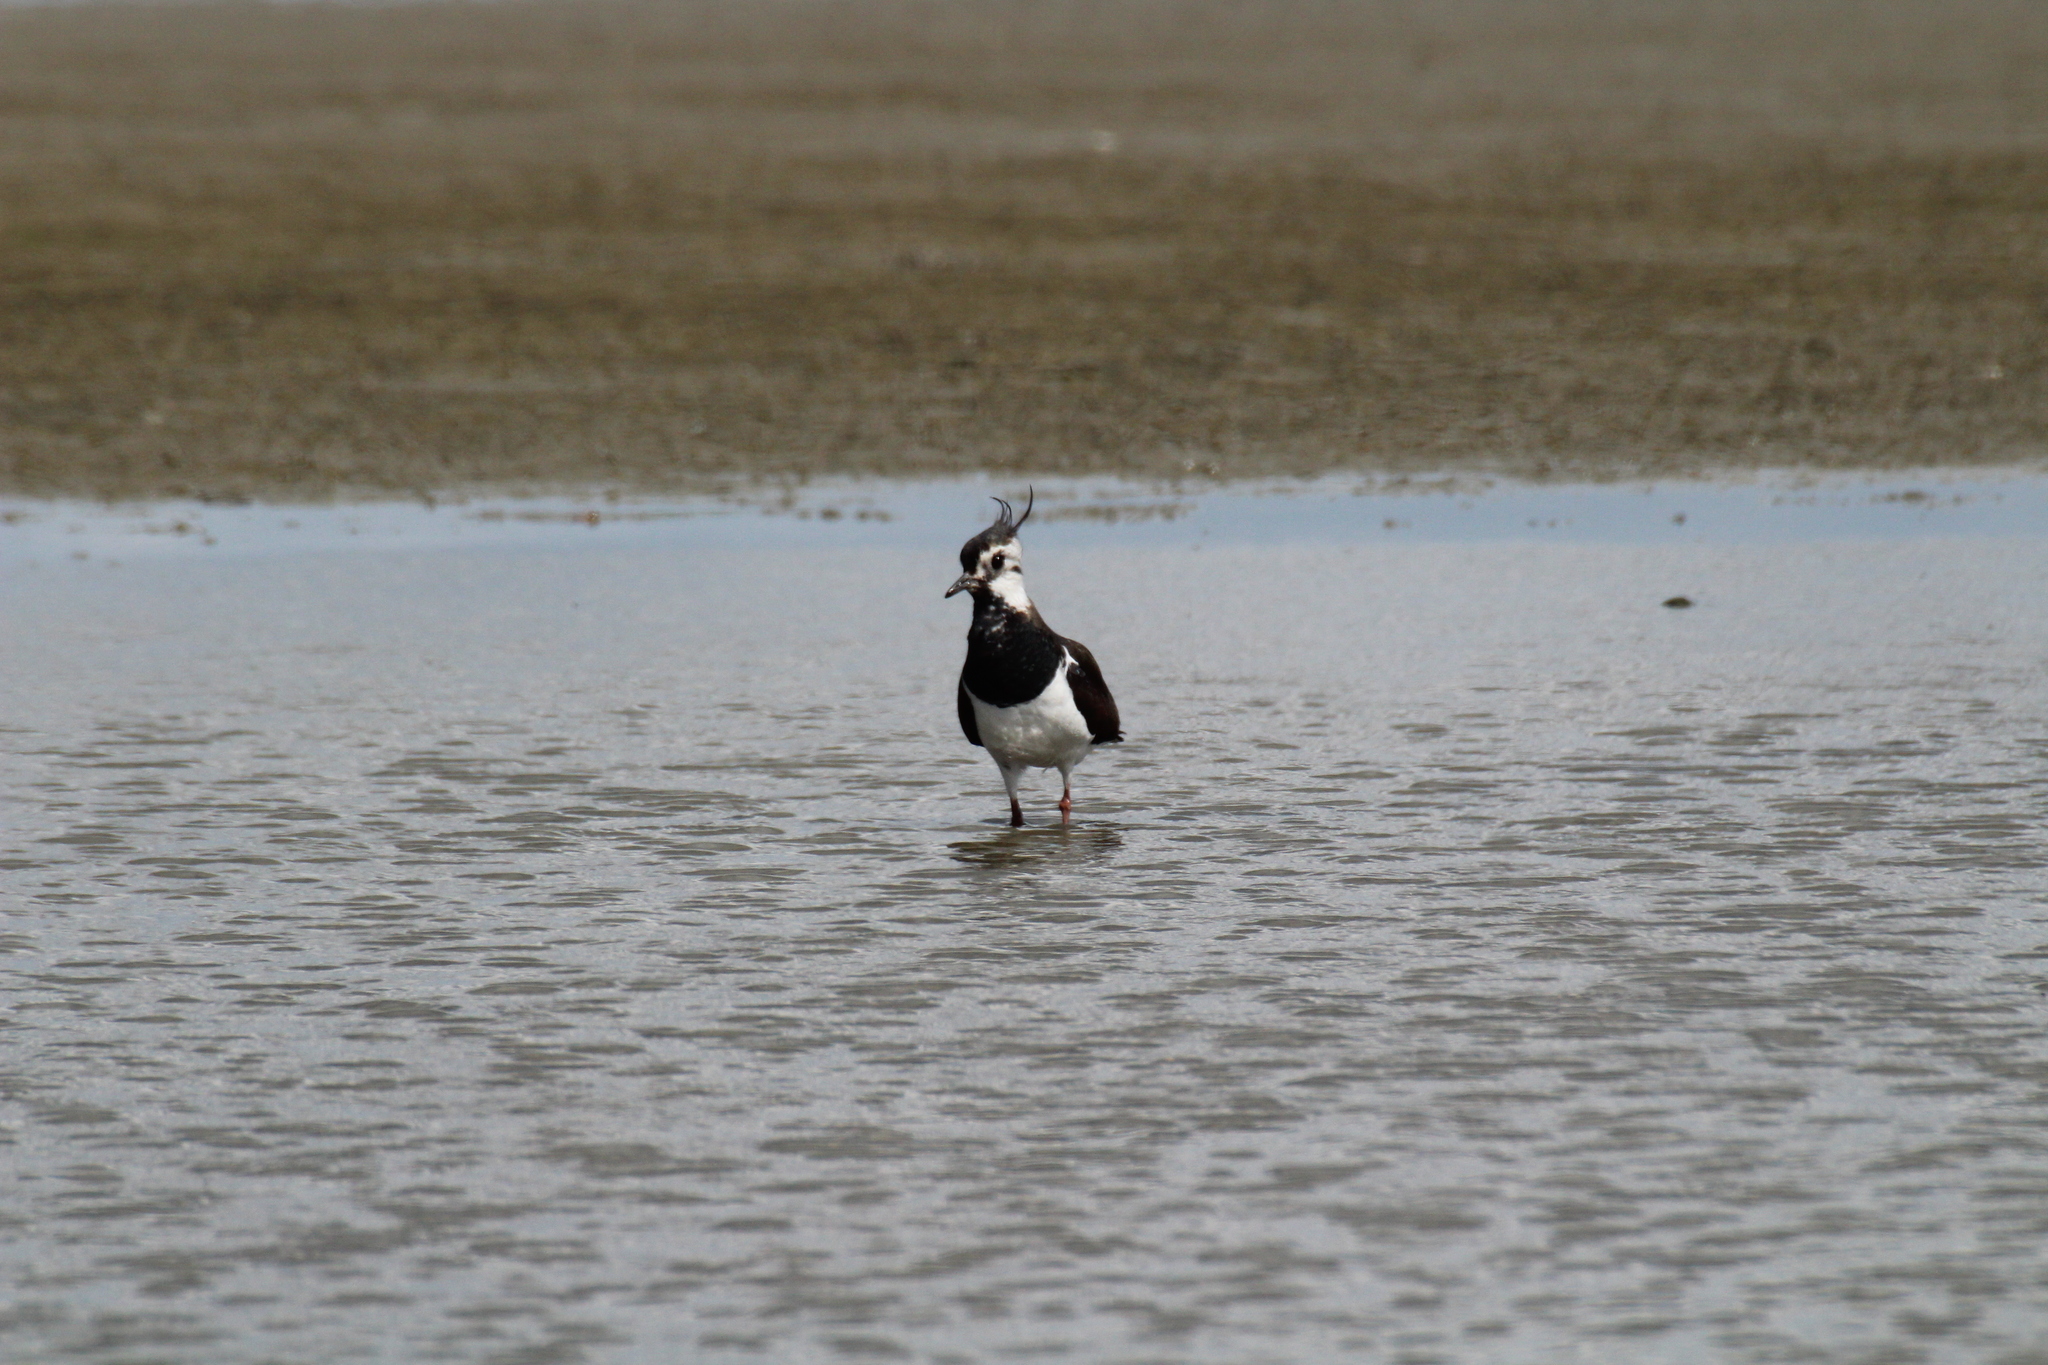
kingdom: Animalia
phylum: Chordata
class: Aves
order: Charadriiformes
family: Charadriidae
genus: Vanellus
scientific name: Vanellus vanellus
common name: Northern lapwing
